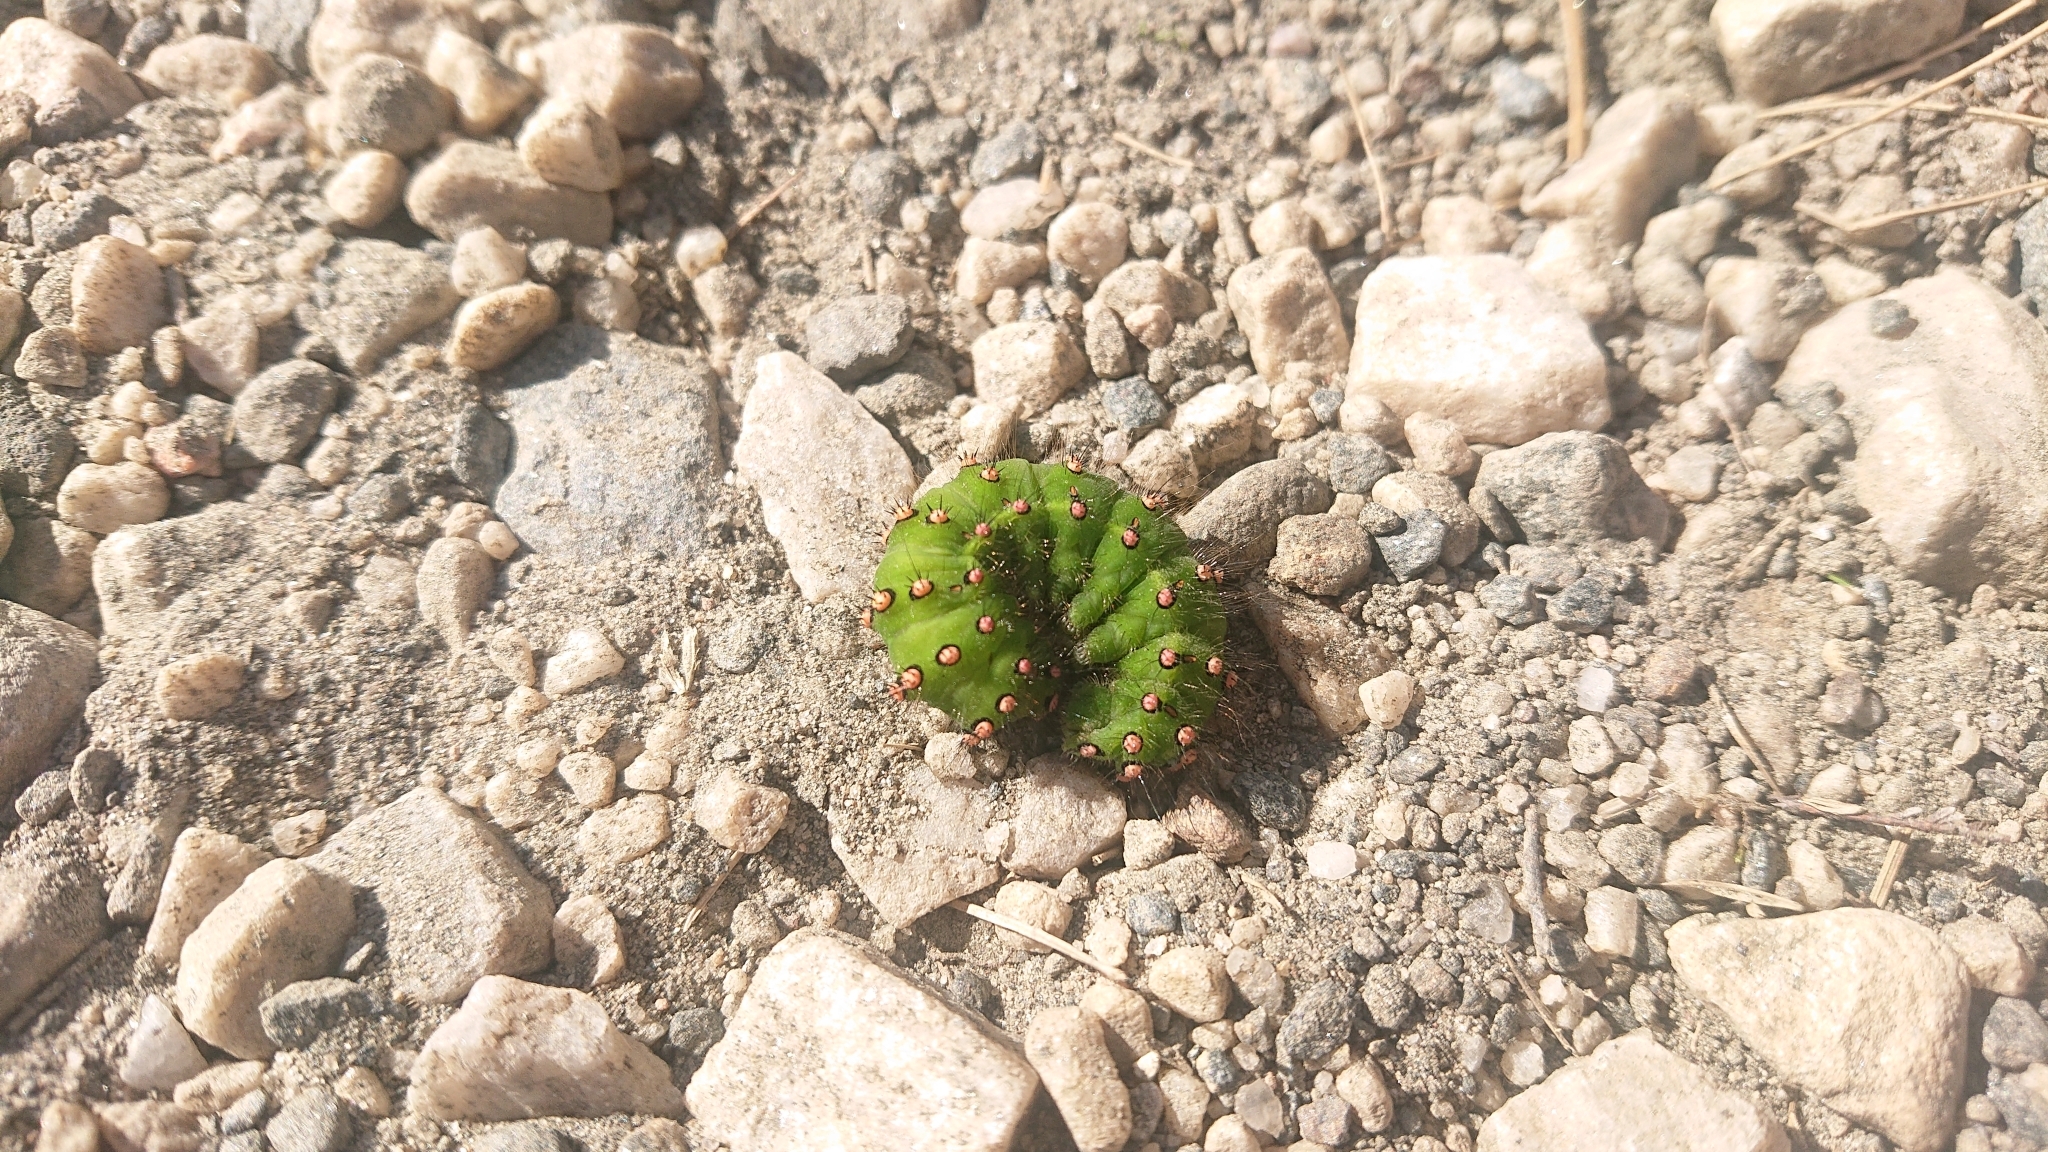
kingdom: Animalia
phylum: Arthropoda
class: Insecta
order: Lepidoptera
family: Saturniidae
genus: Saturnia
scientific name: Saturnia pavonia
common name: Emperor moth
